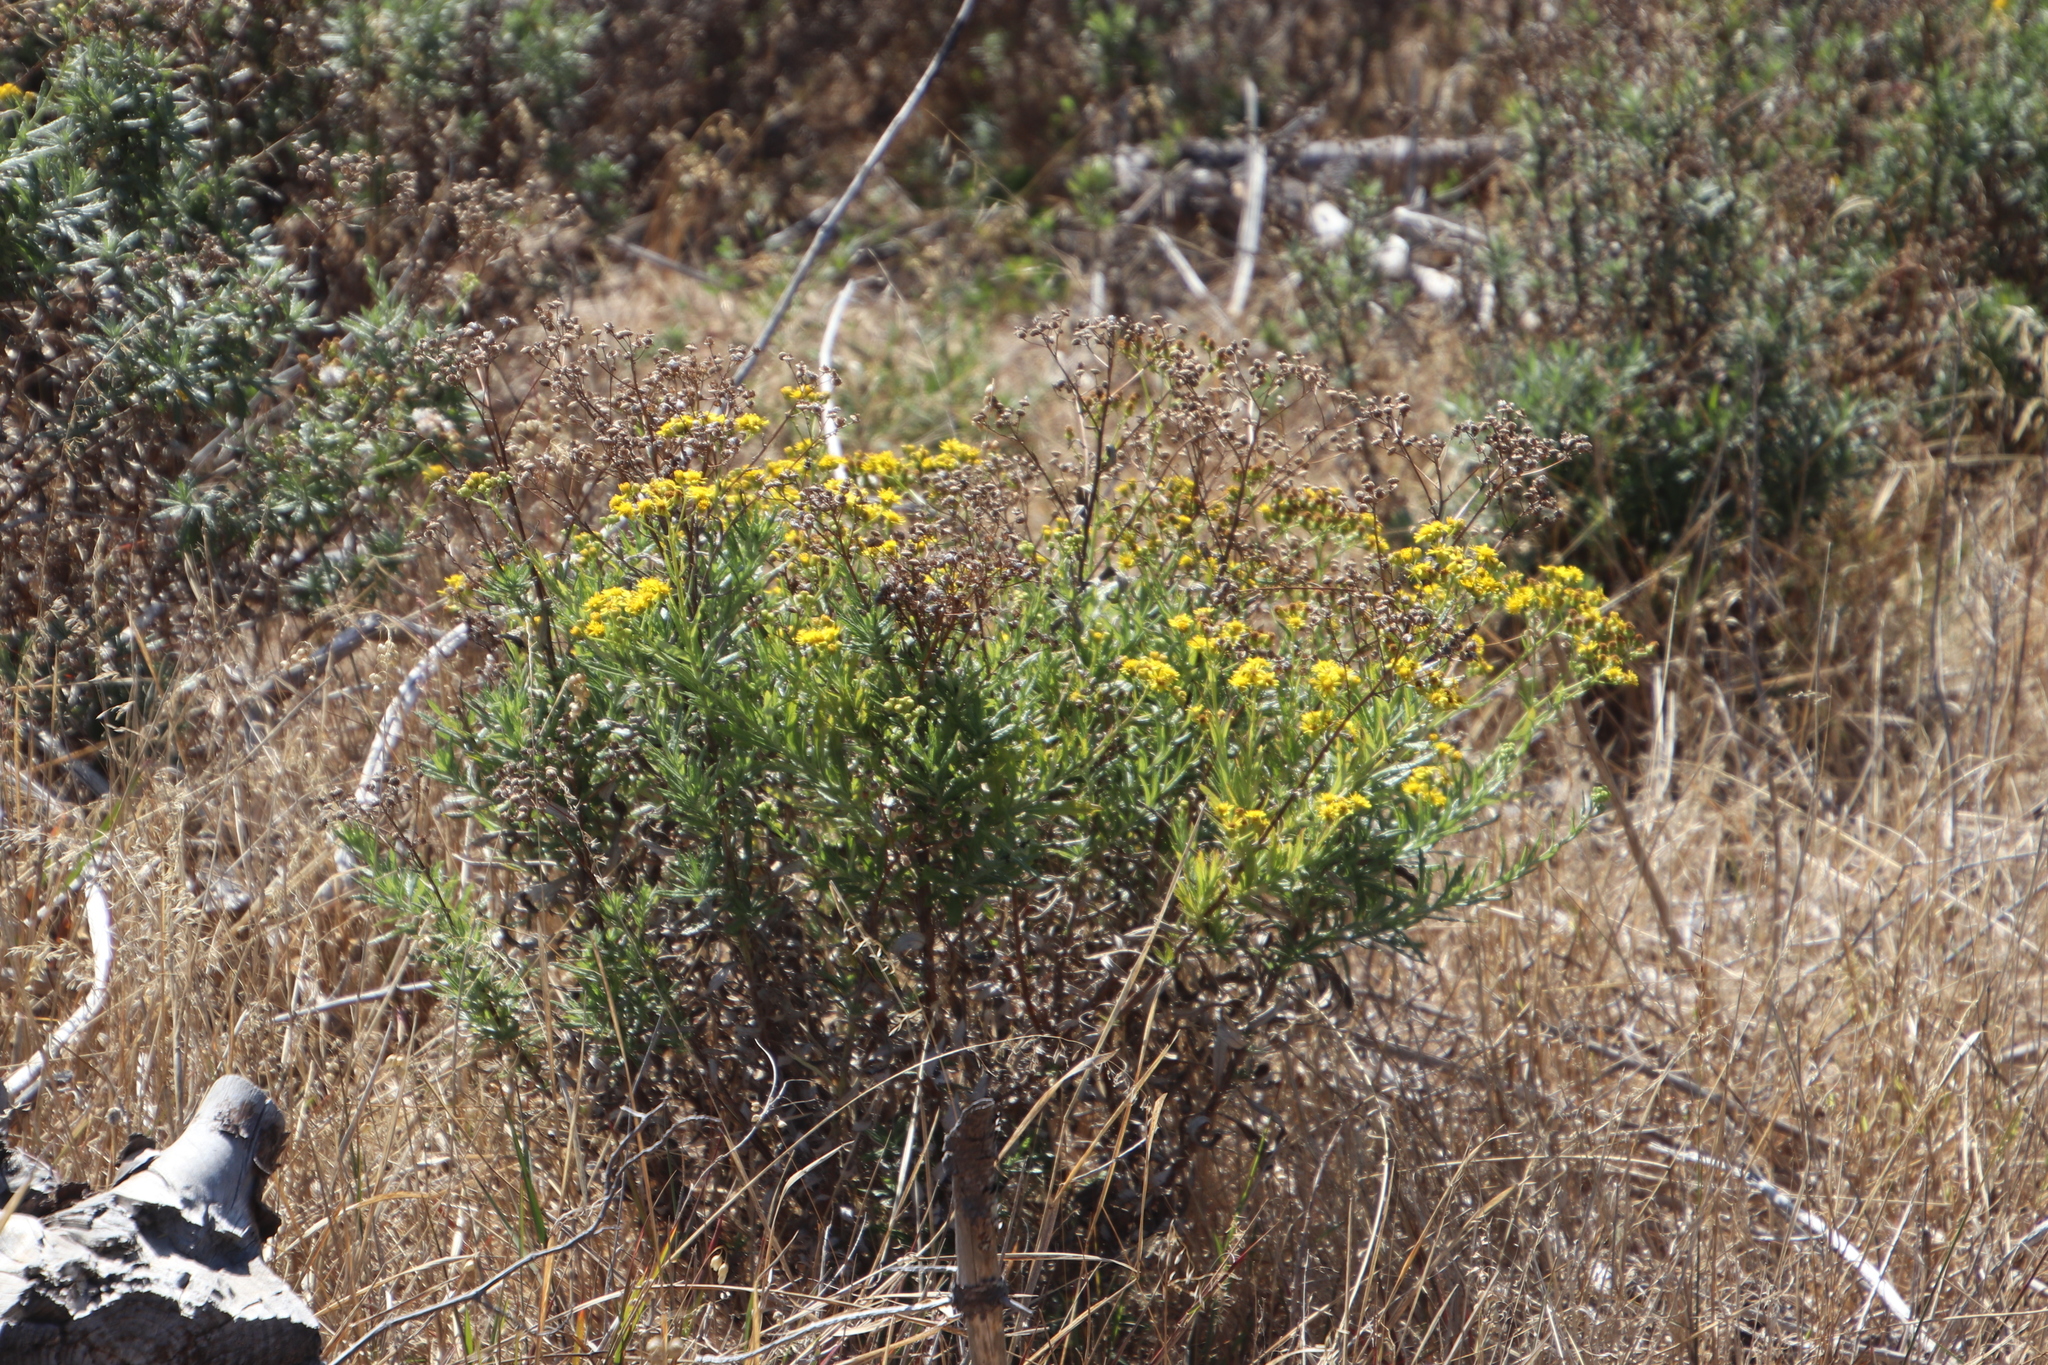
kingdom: Plantae
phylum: Tracheophyta
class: Magnoliopsida
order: Asterales
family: Asteraceae
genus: Senecio
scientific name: Senecio pterophorus
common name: Shoddy ragwort
